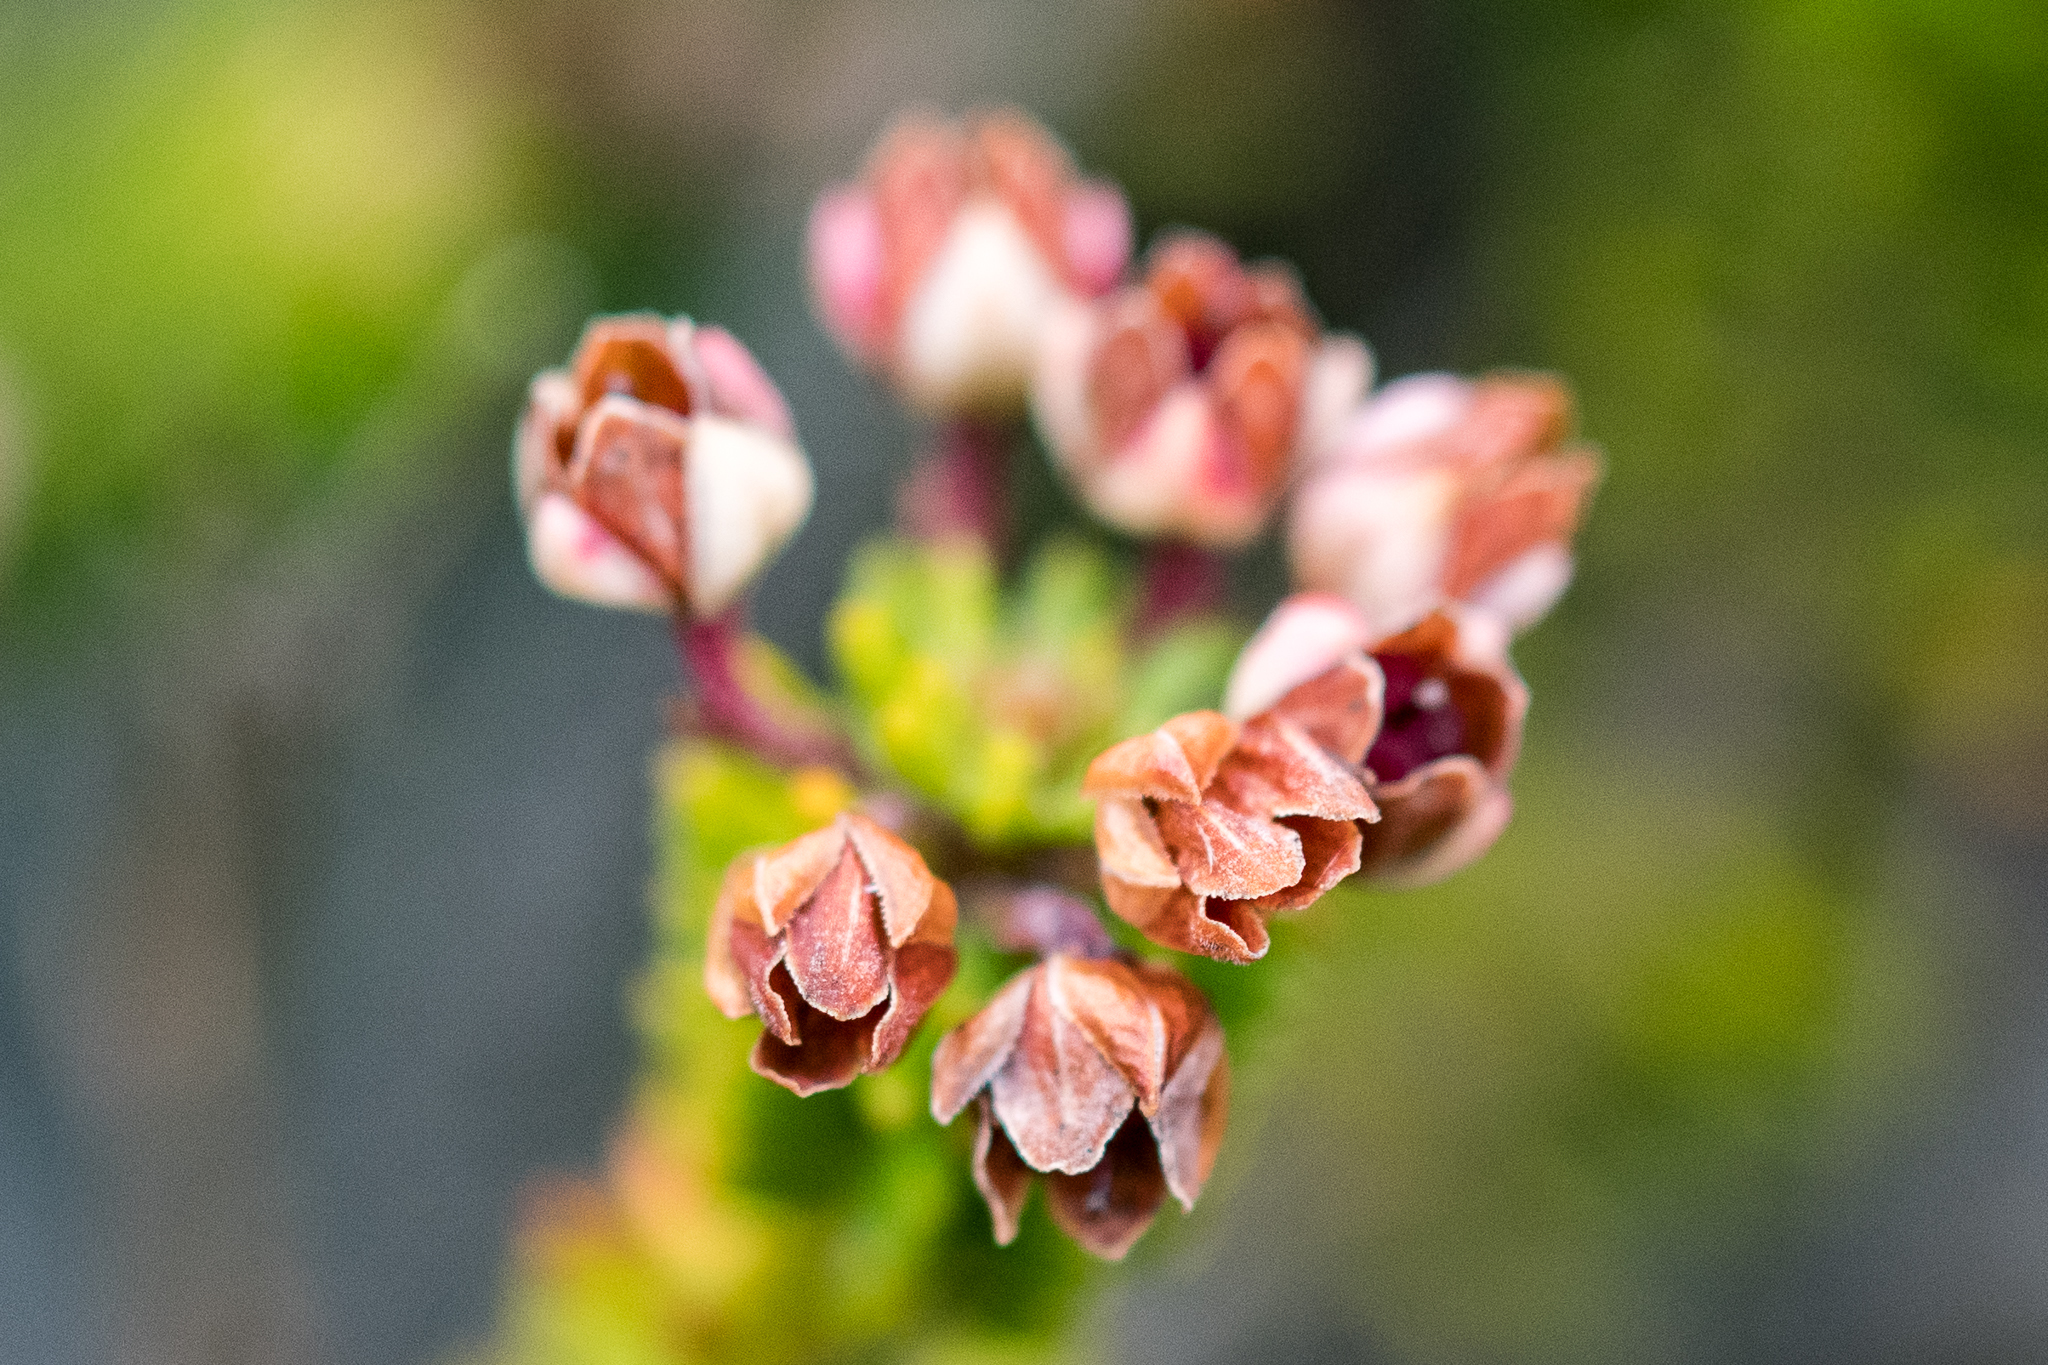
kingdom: Plantae
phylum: Tracheophyta
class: Magnoliopsida
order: Ericales
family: Ericaceae
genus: Erica
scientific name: Erica stokoei
